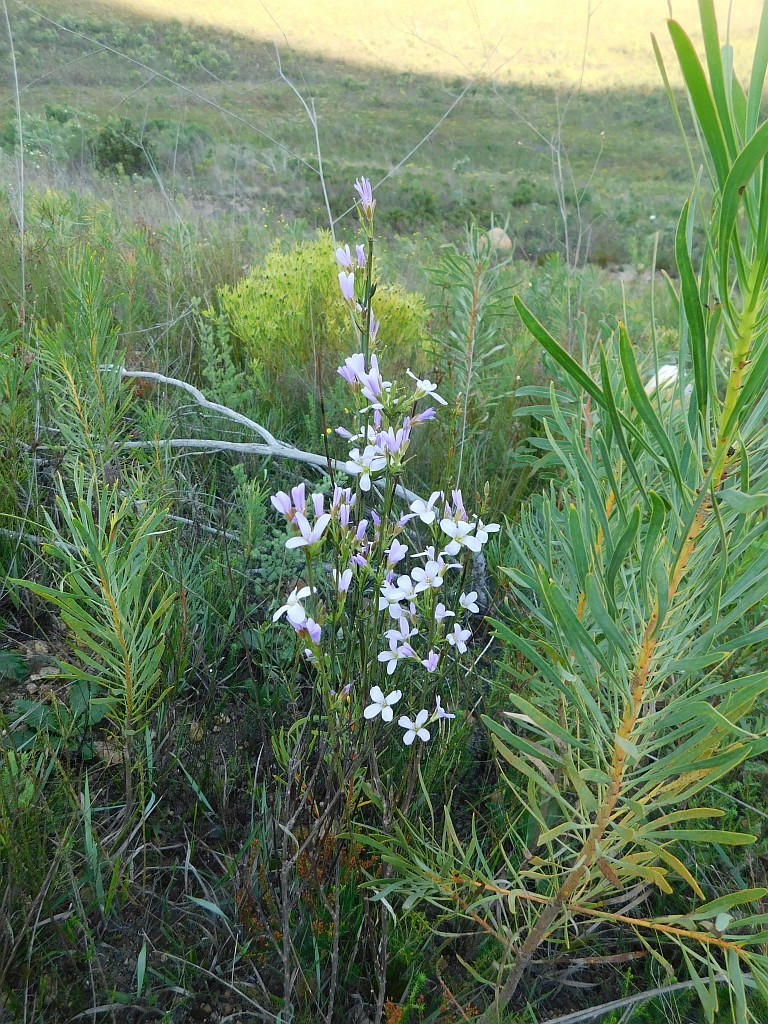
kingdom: Plantae
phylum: Tracheophyta
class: Magnoliopsida
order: Brassicales
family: Brassicaceae
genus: Heliophila
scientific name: Heliophila scoparia
